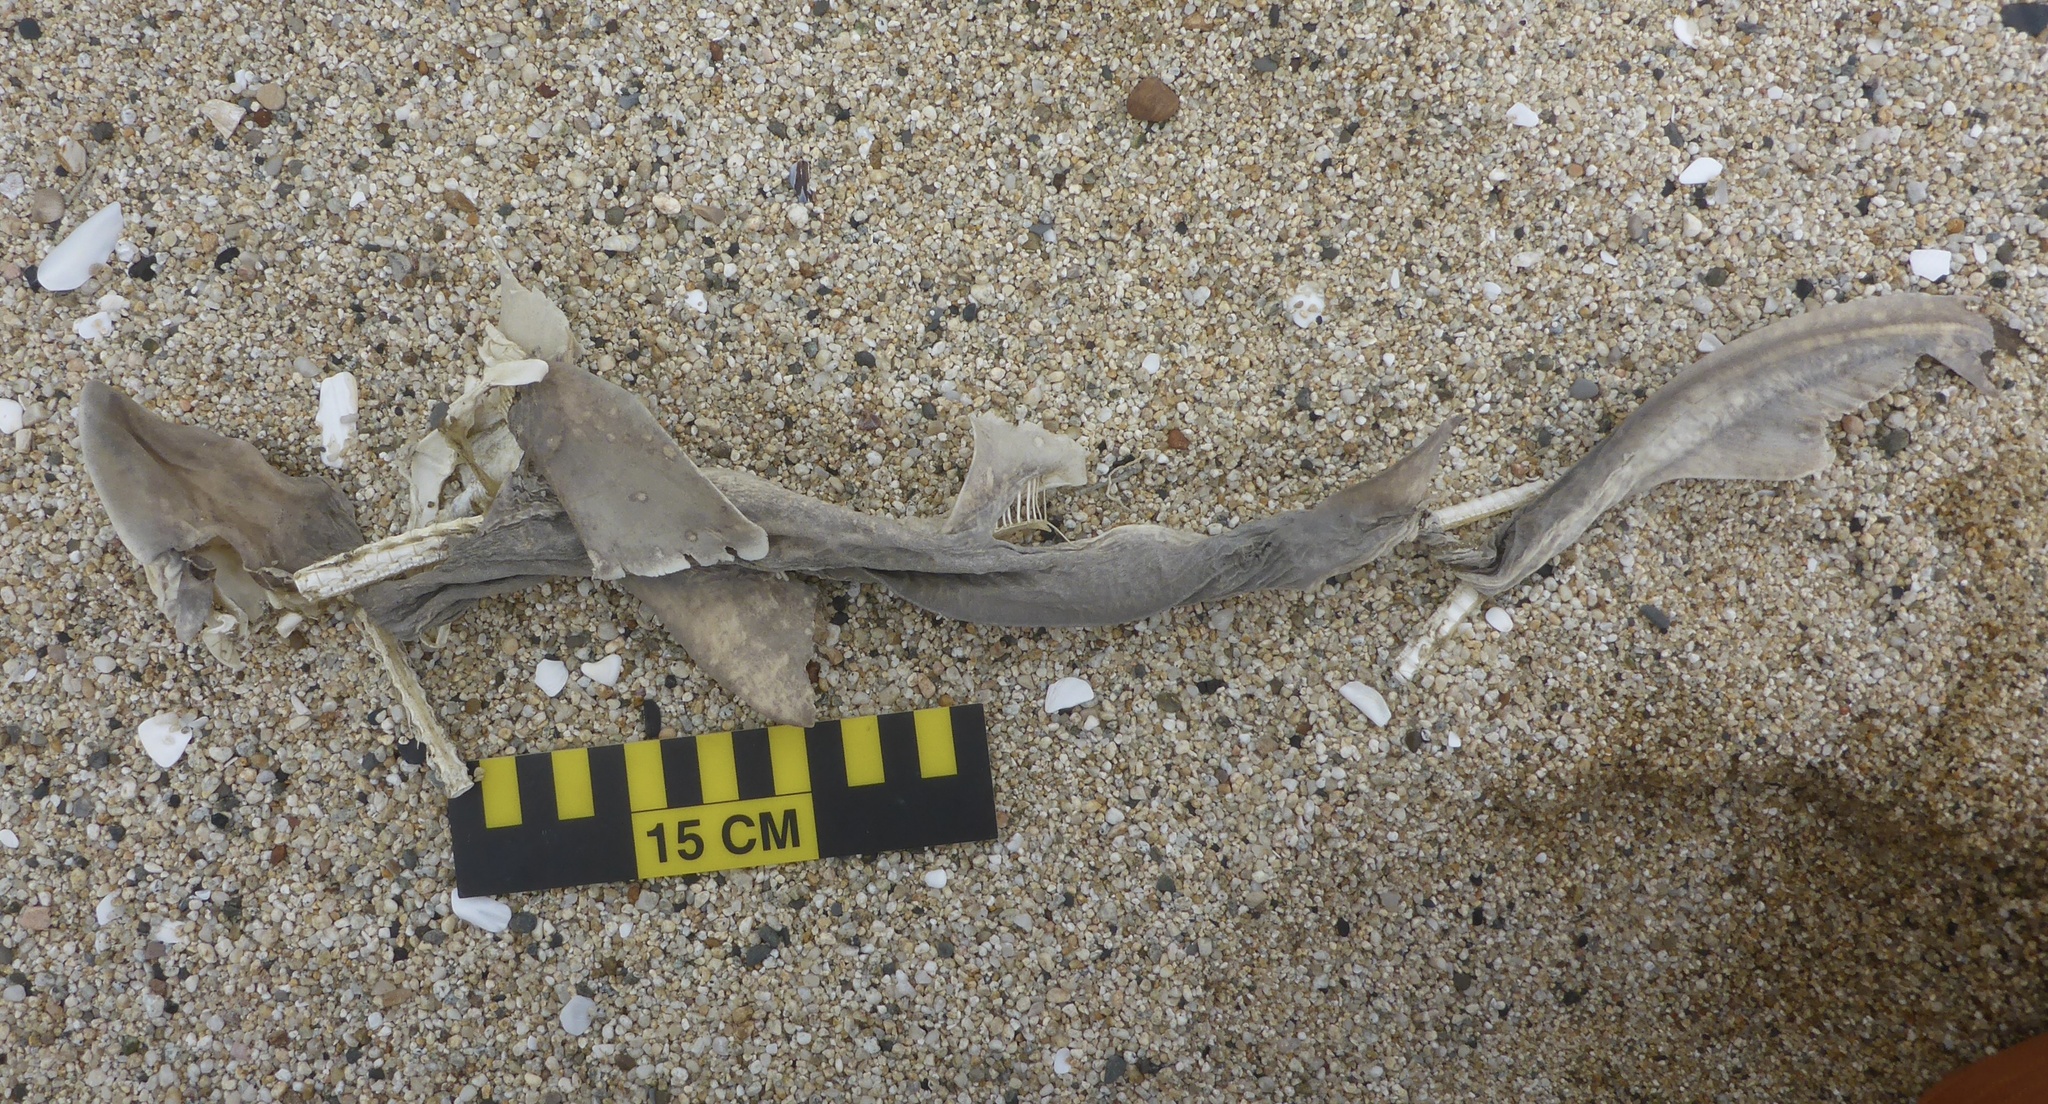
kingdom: Animalia
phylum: Chordata
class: Elasmobranchii
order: Carcharhiniformes
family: Triakidae
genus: Mustelus
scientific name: Mustelus henlei
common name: Brown smooth-hound
